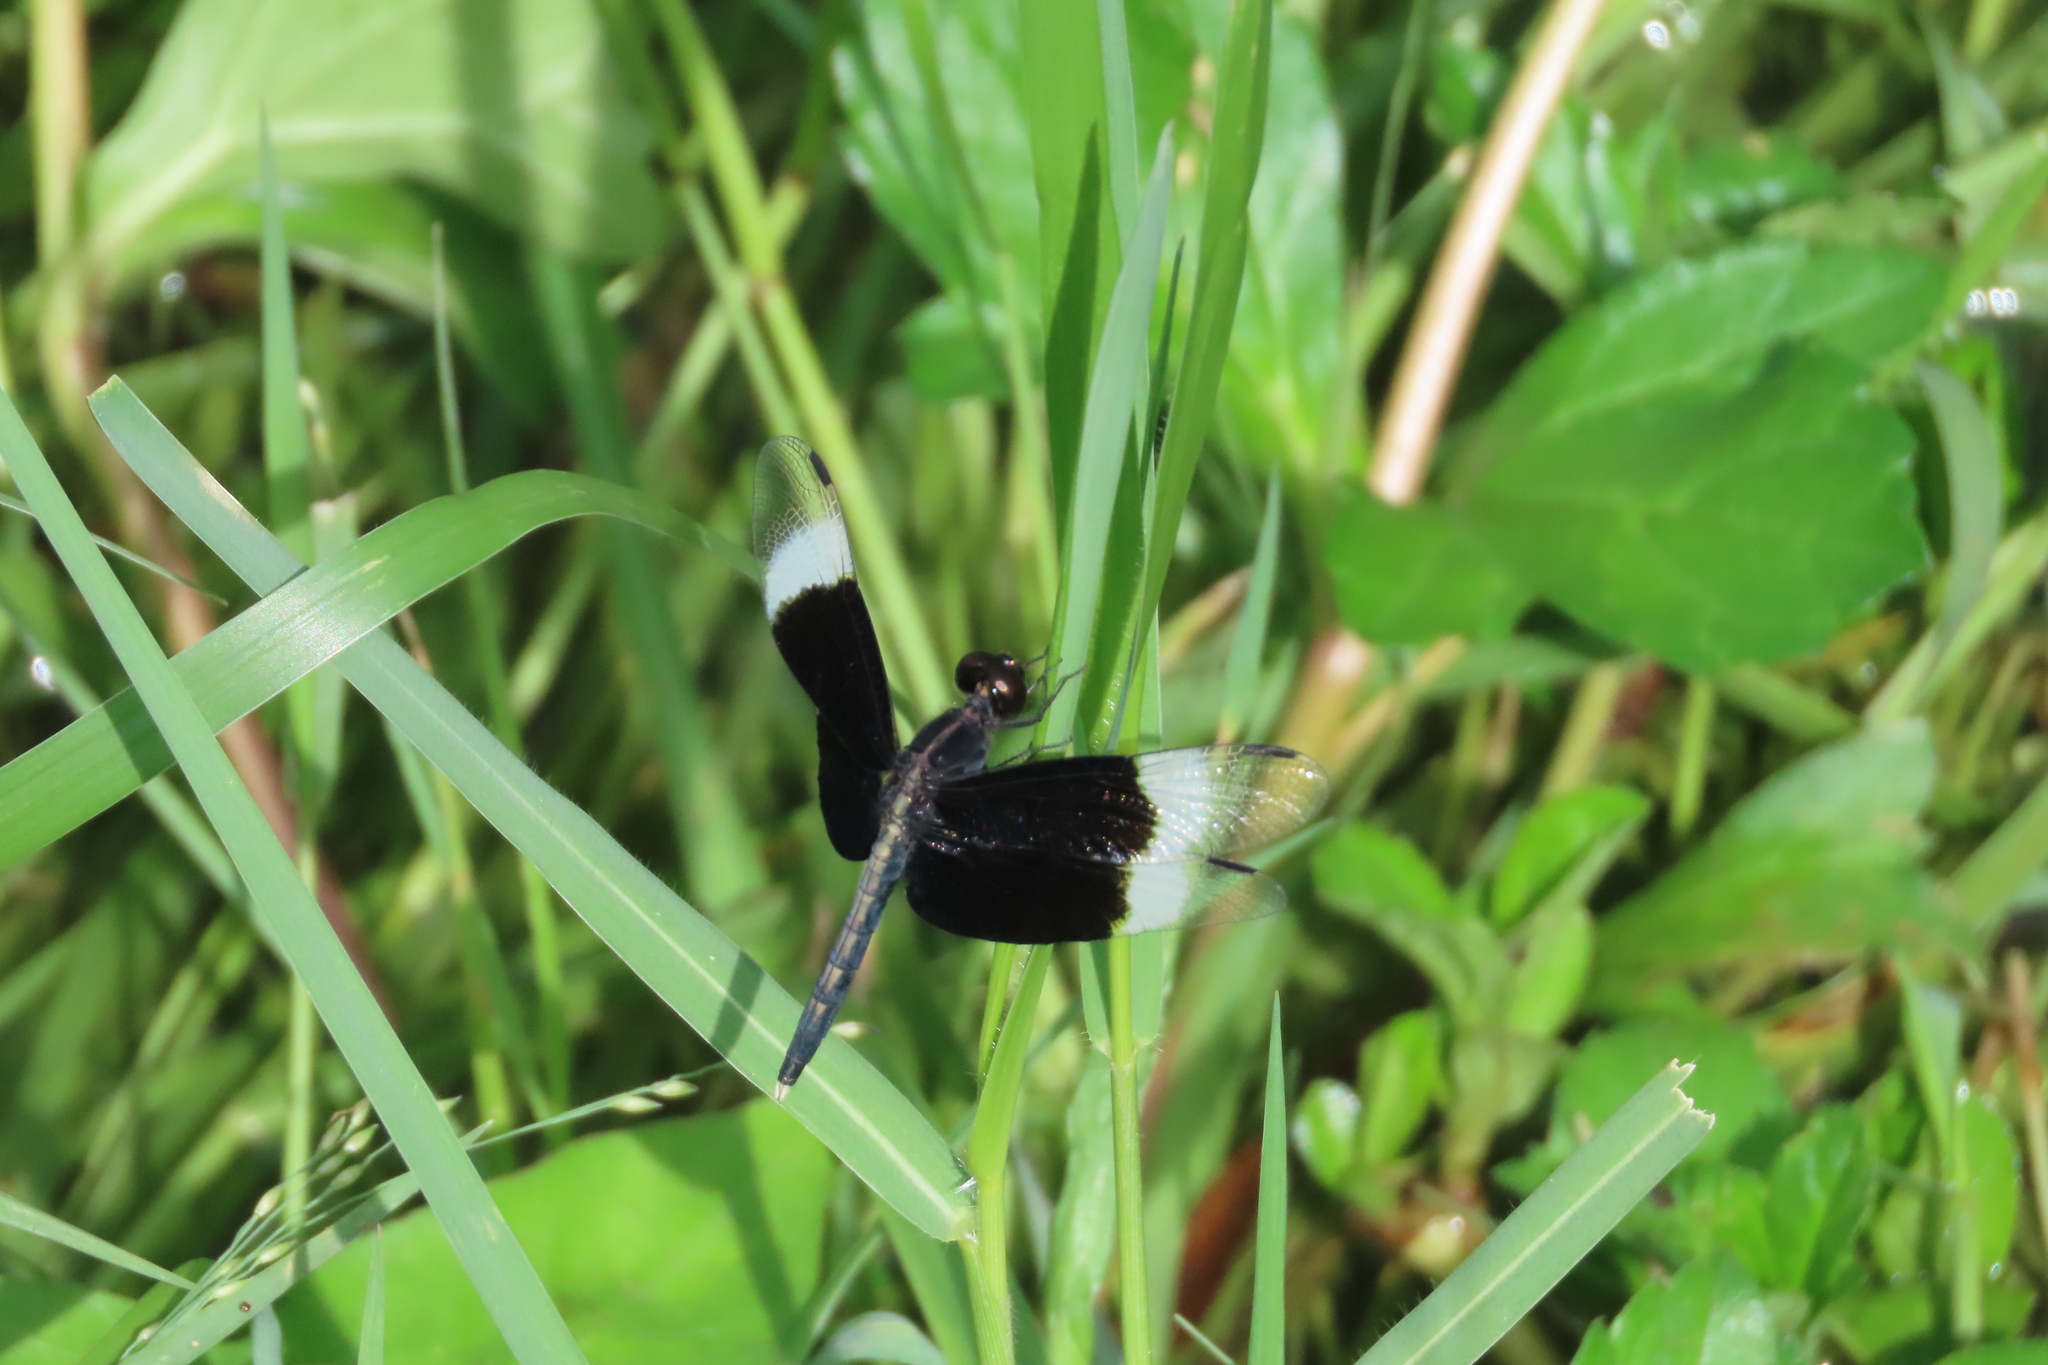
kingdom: Animalia
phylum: Arthropoda
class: Insecta
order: Odonata
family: Libellulidae
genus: Neurothemis
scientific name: Neurothemis tullia
